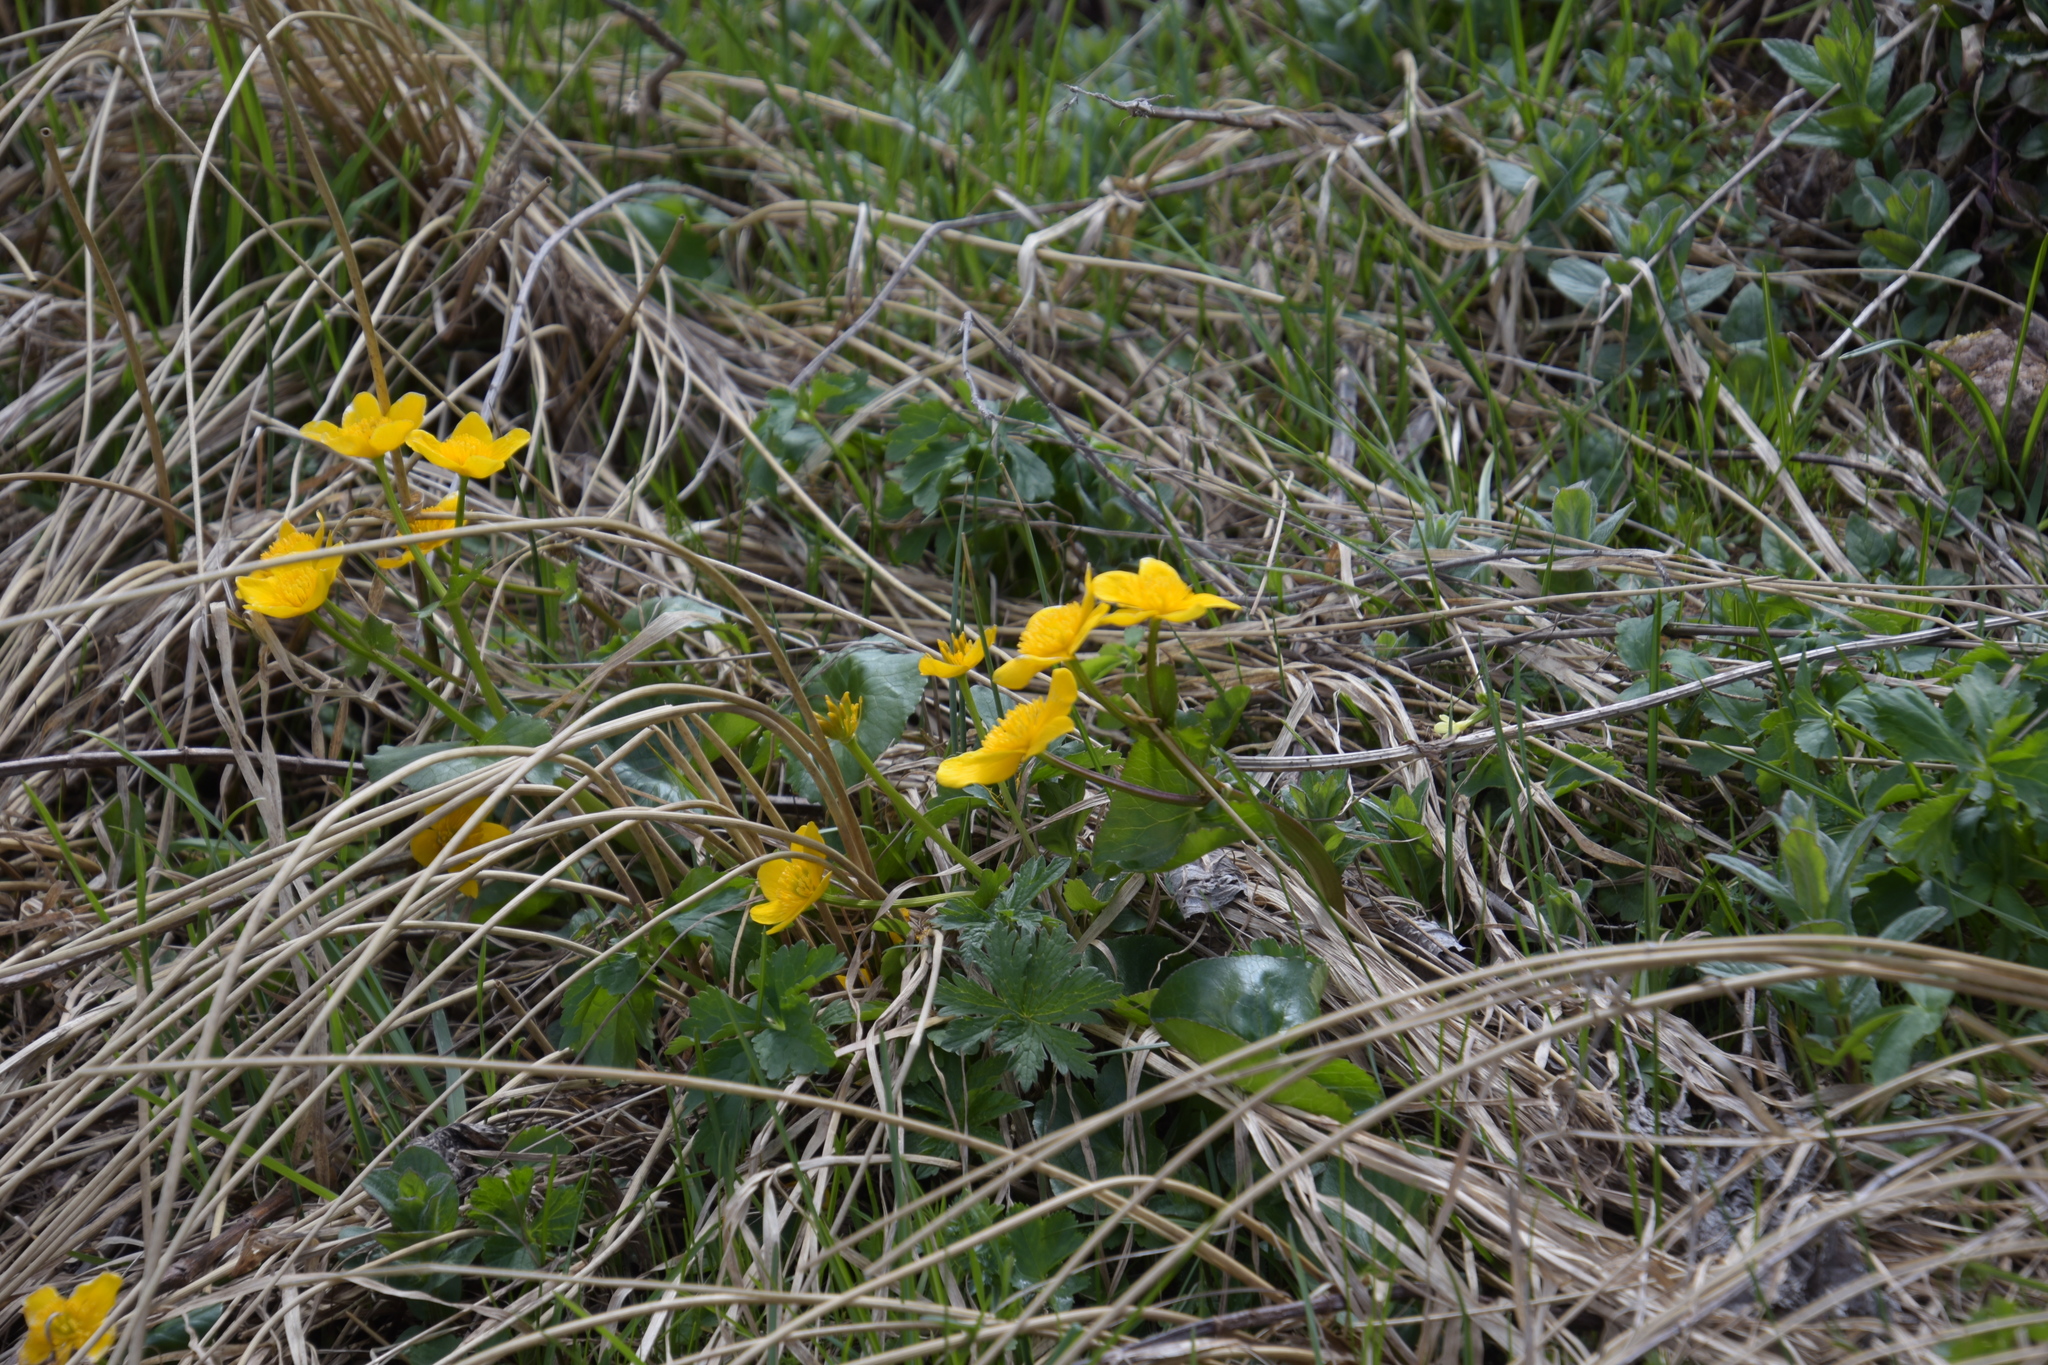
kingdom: Plantae
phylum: Tracheophyta
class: Magnoliopsida
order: Ranunculales
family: Ranunculaceae
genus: Caltha
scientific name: Caltha palustris
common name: Marsh marigold
